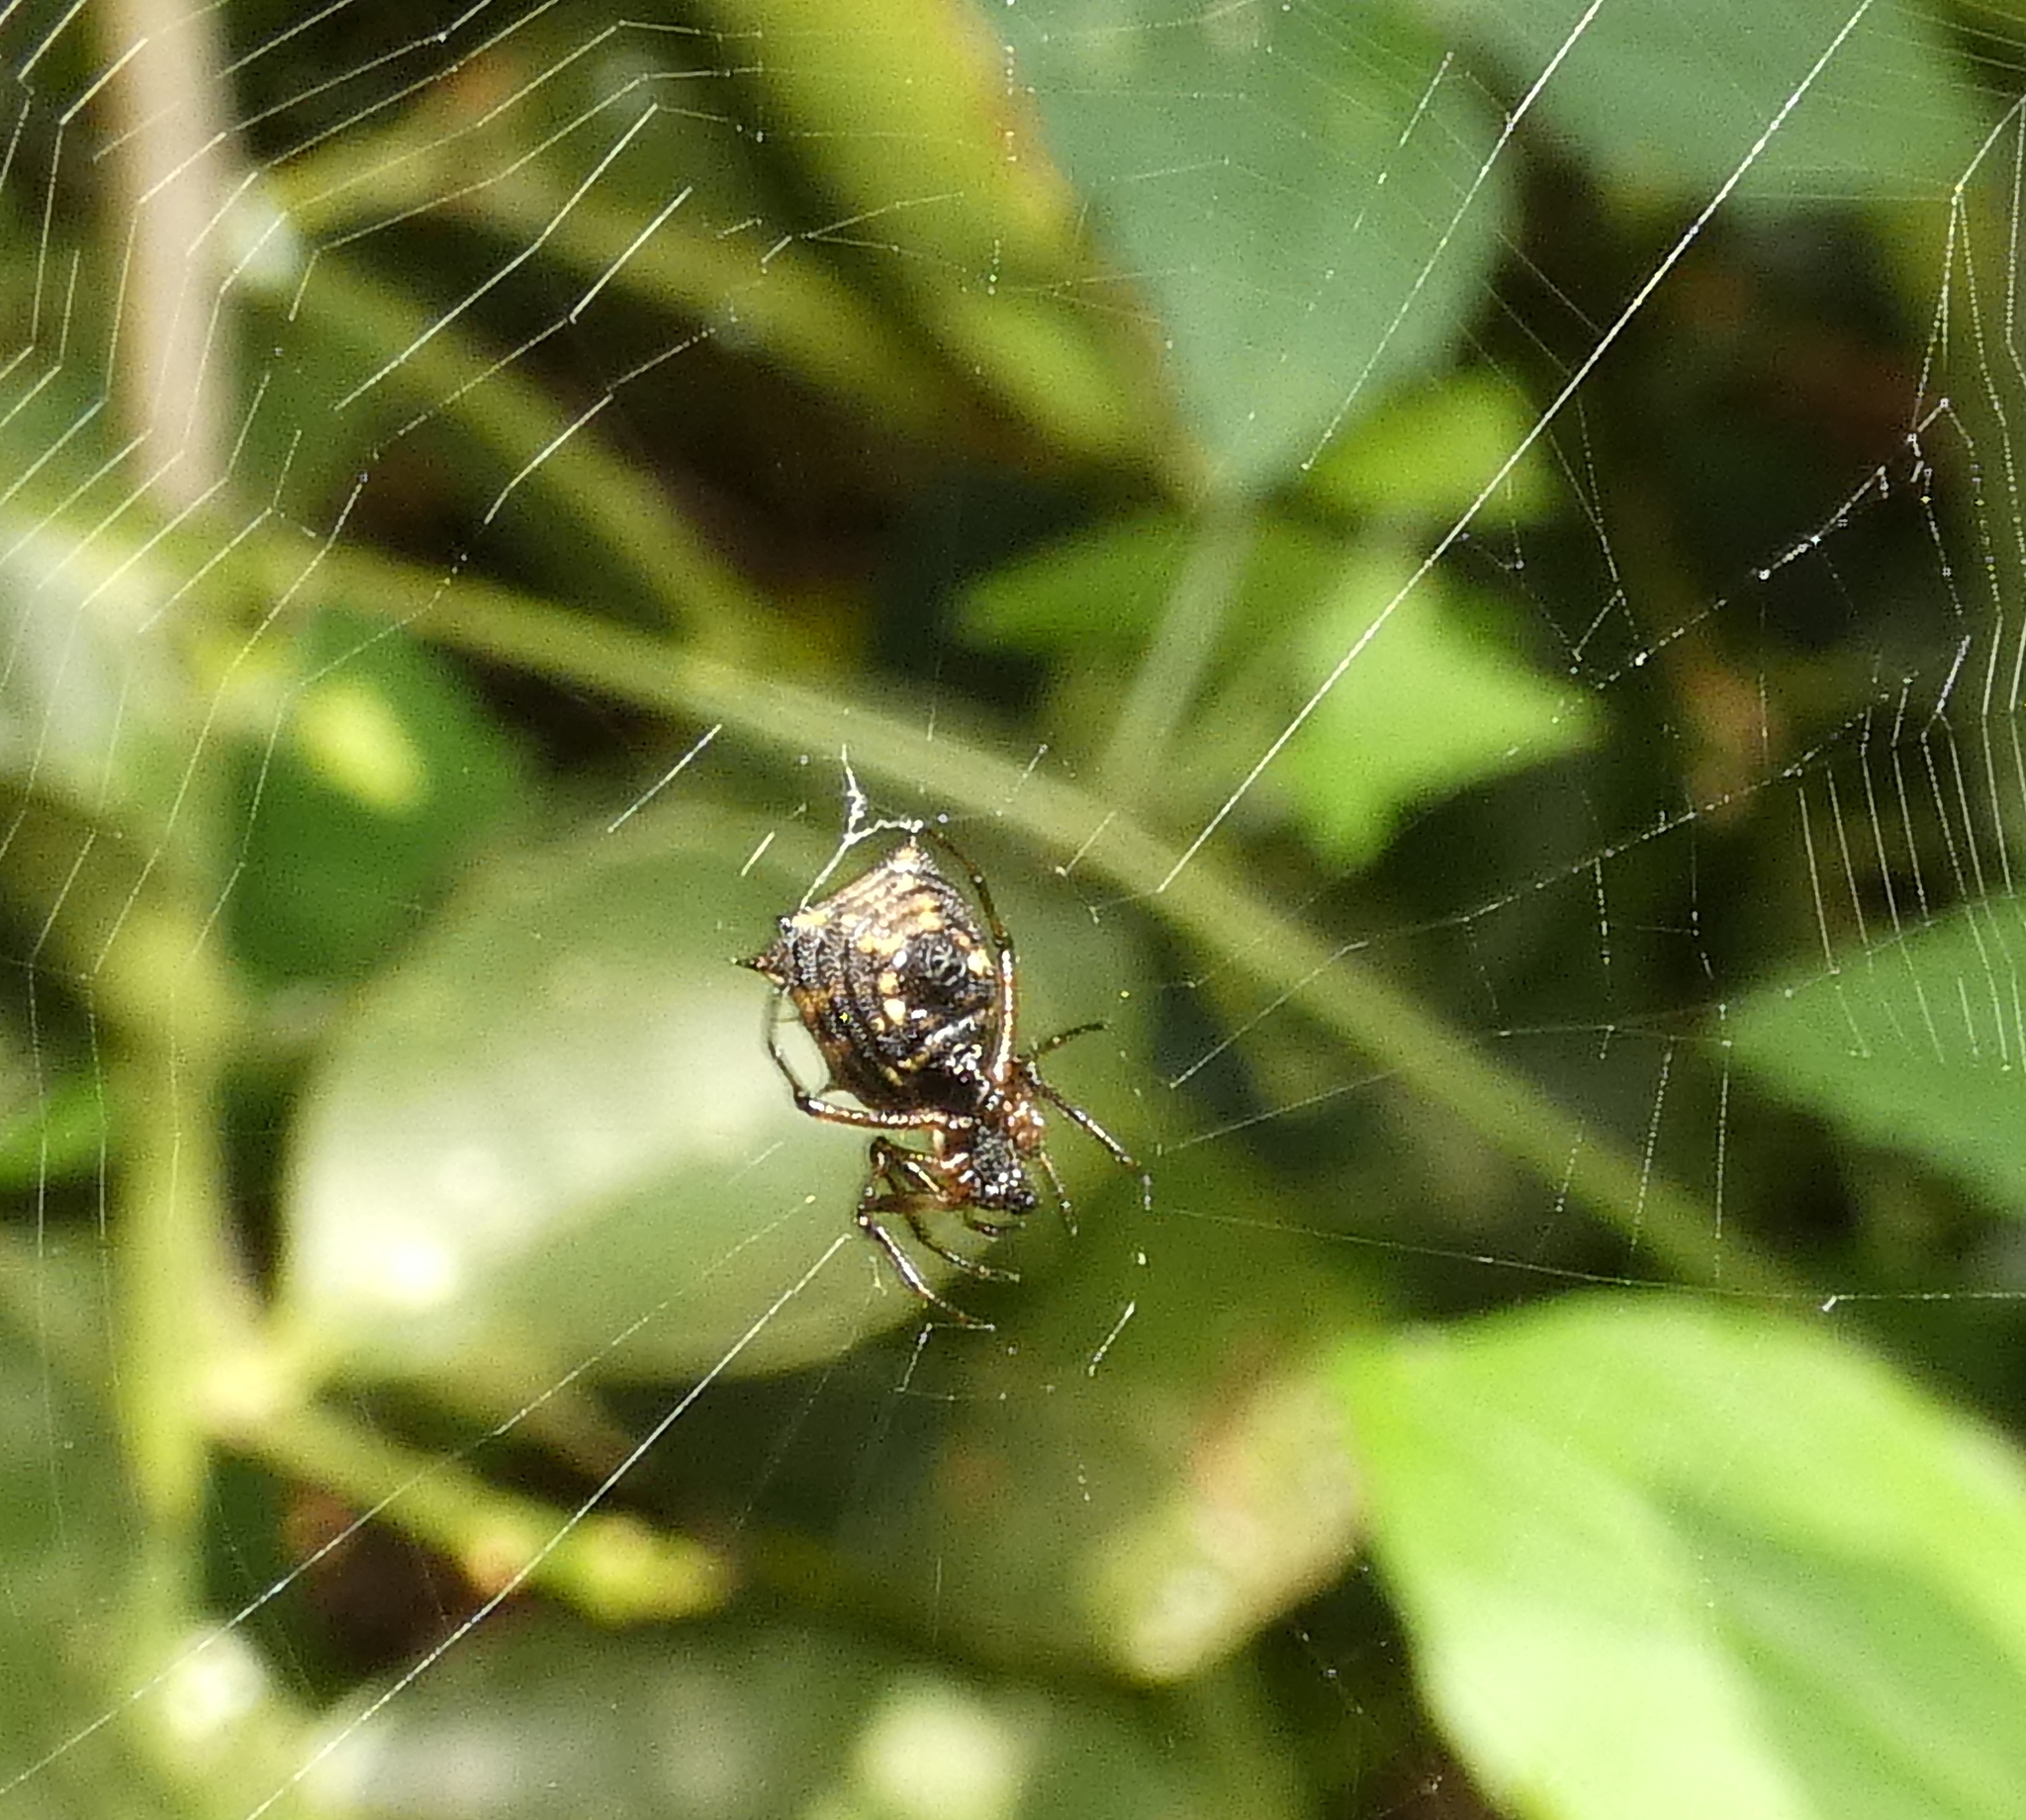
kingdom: Animalia
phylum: Arthropoda
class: Arachnida
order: Araneae
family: Araneidae
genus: Micrathena
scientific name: Micrathena picta
